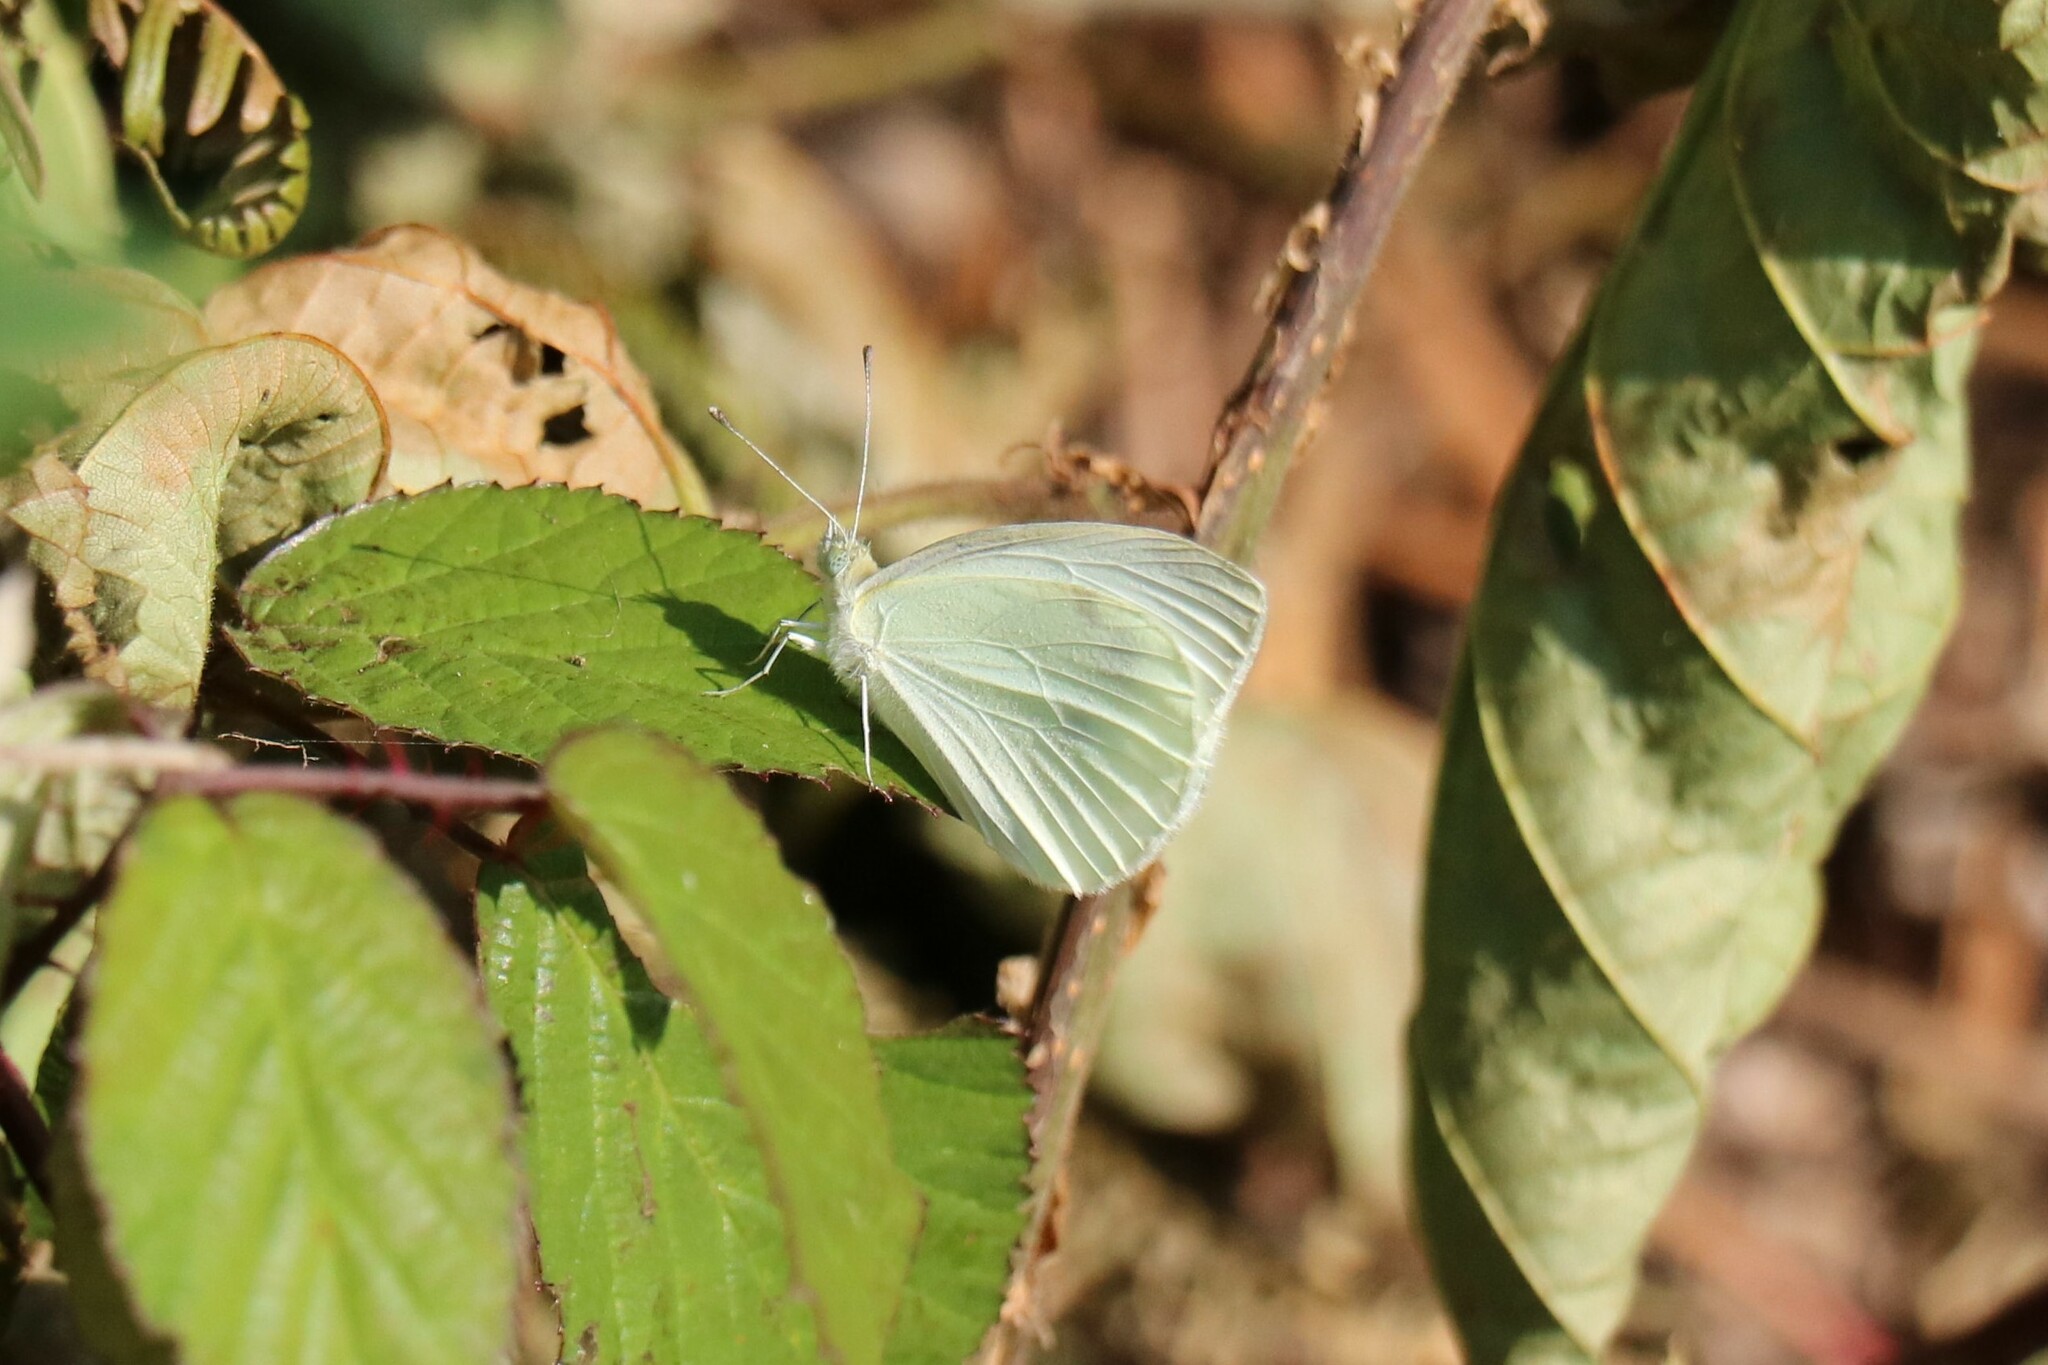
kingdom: Animalia
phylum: Arthropoda
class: Insecta
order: Lepidoptera
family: Pieridae
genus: Pieris
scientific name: Pieris rapae
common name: Small white
